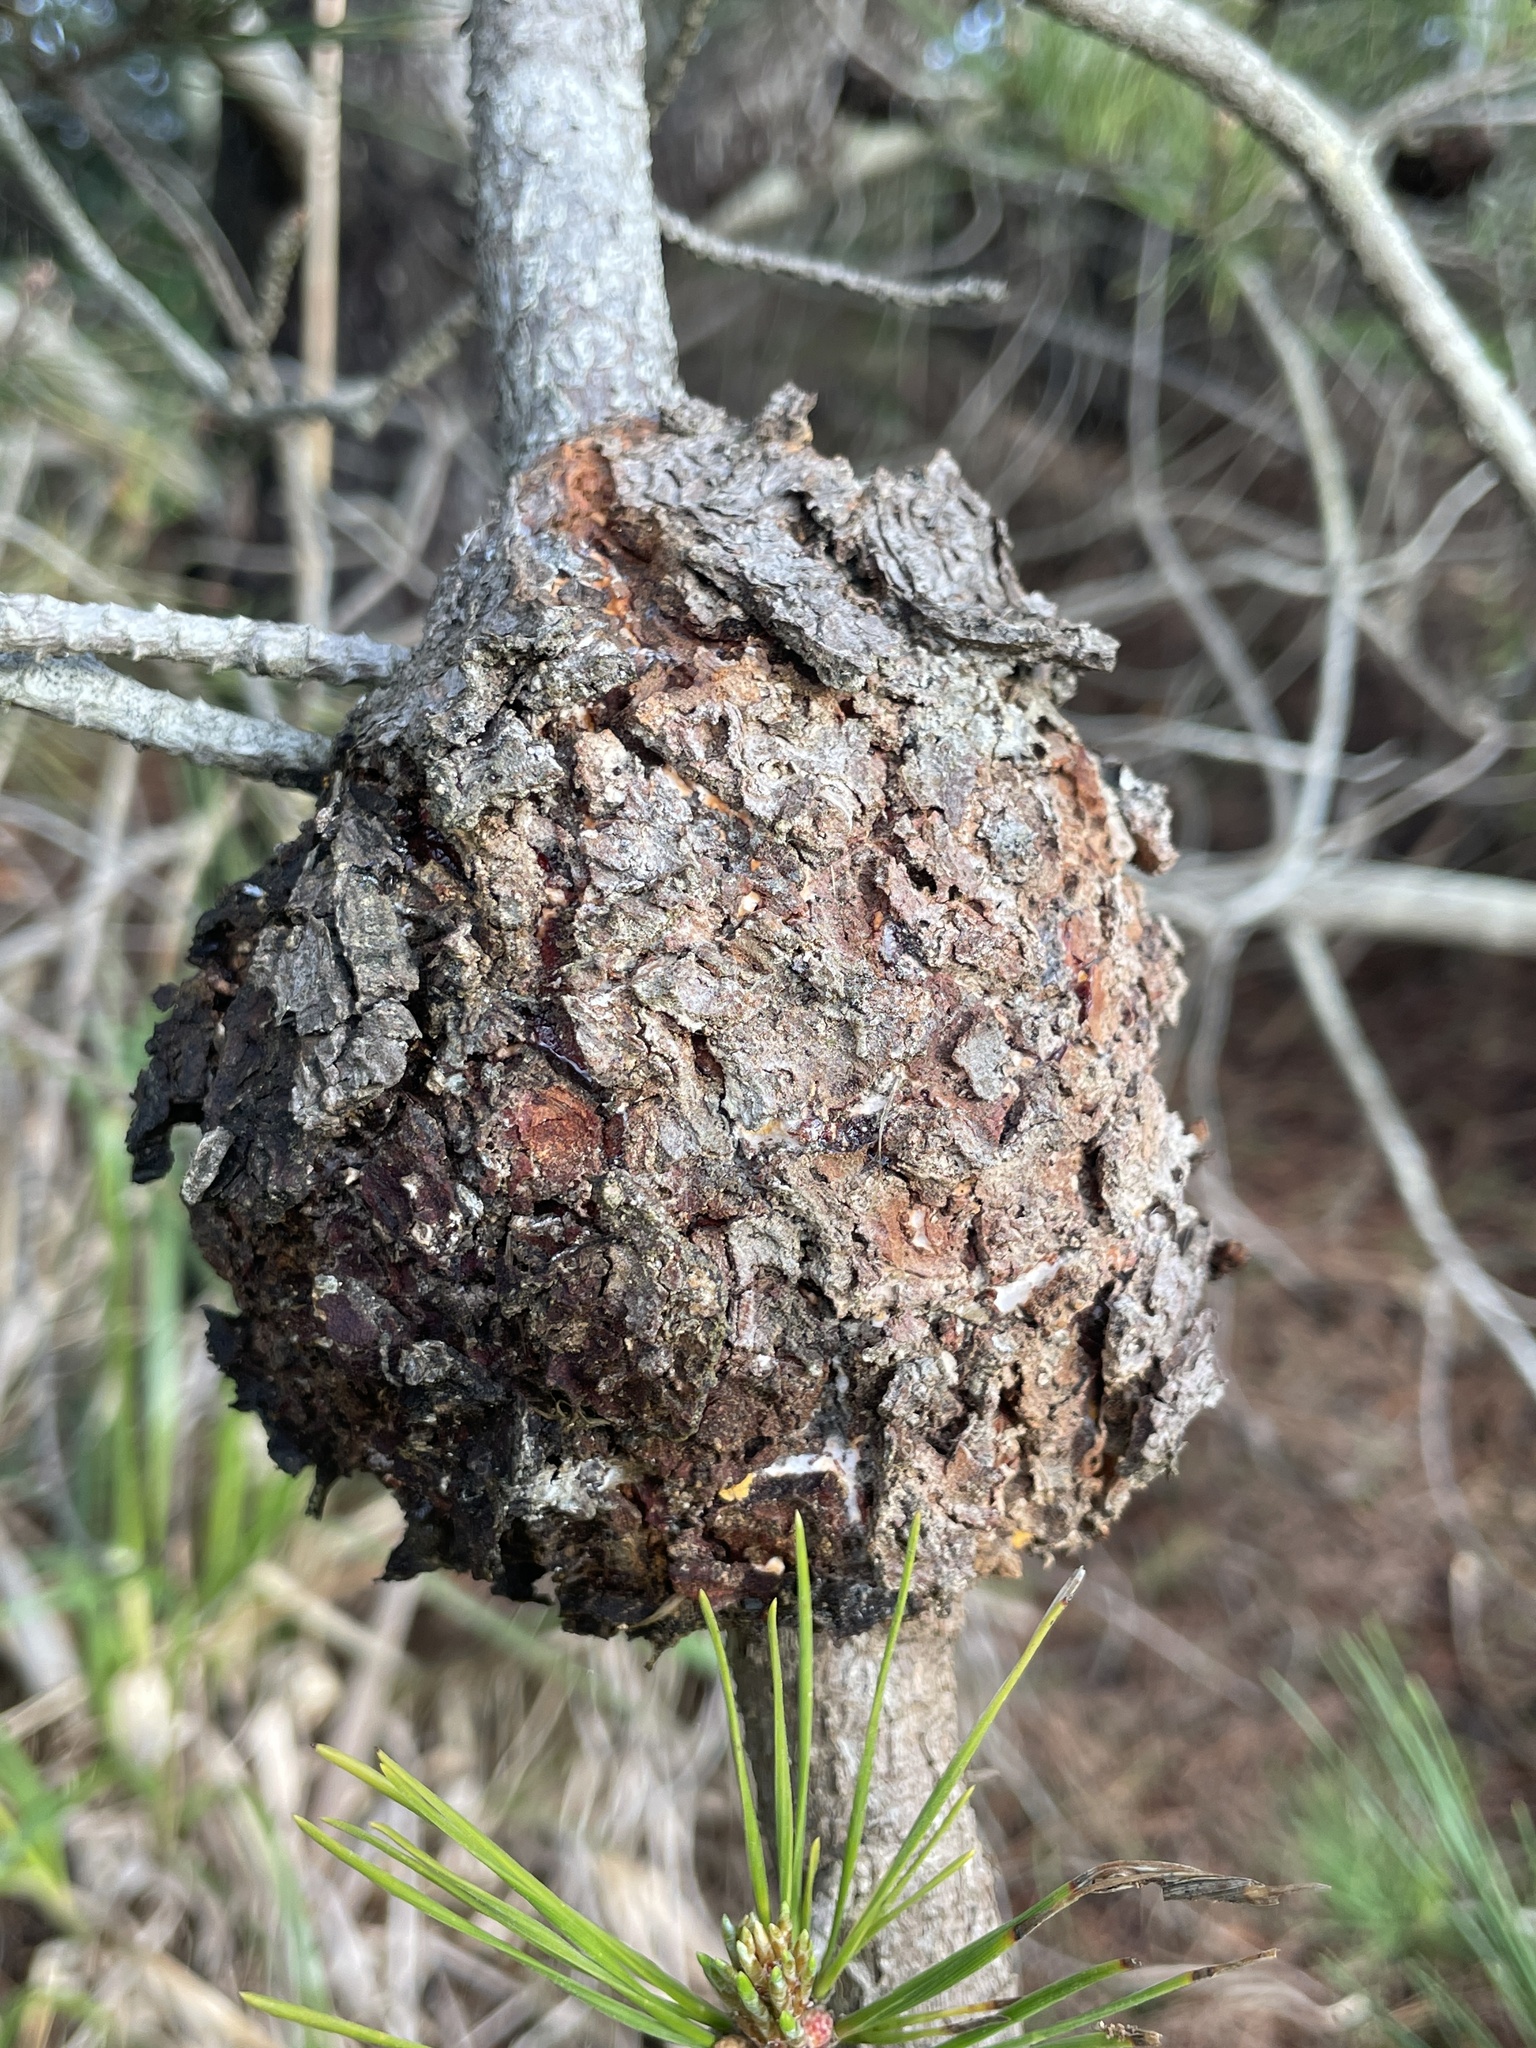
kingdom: Fungi
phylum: Basidiomycota
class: Pucciniomycetes
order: Pucciniales
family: Cronartiaceae
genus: Cronartium
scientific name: Cronartium harknessii
